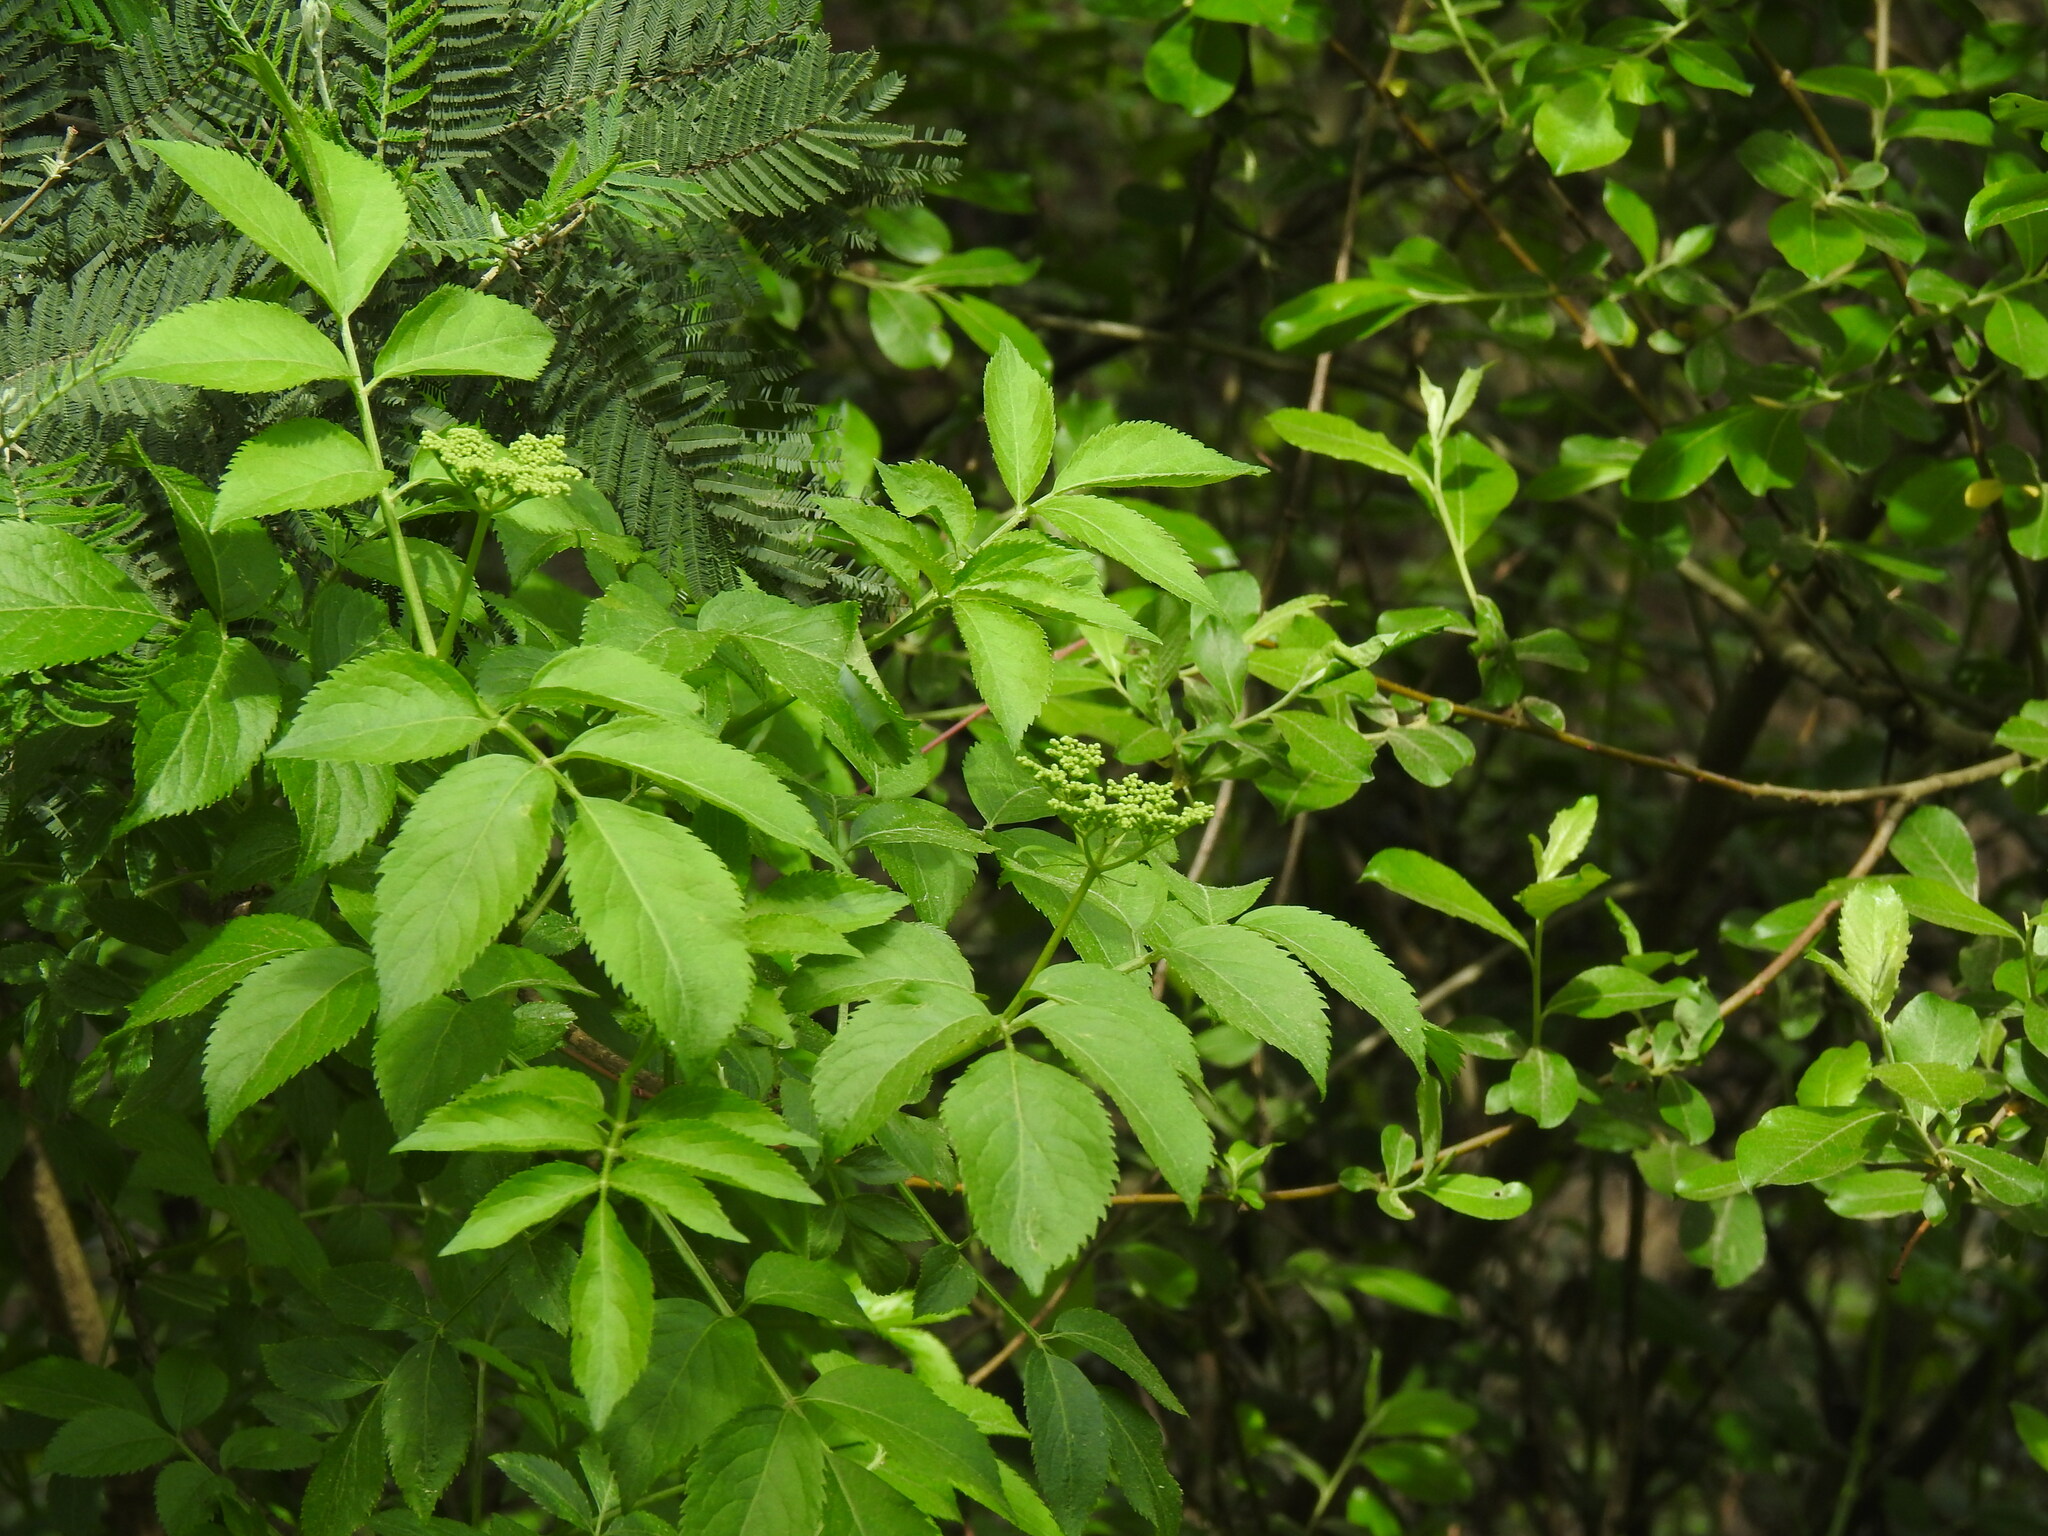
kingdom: Plantae
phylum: Tracheophyta
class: Magnoliopsida
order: Dipsacales
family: Viburnaceae
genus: Sambucus
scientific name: Sambucus nigra
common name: Elder
